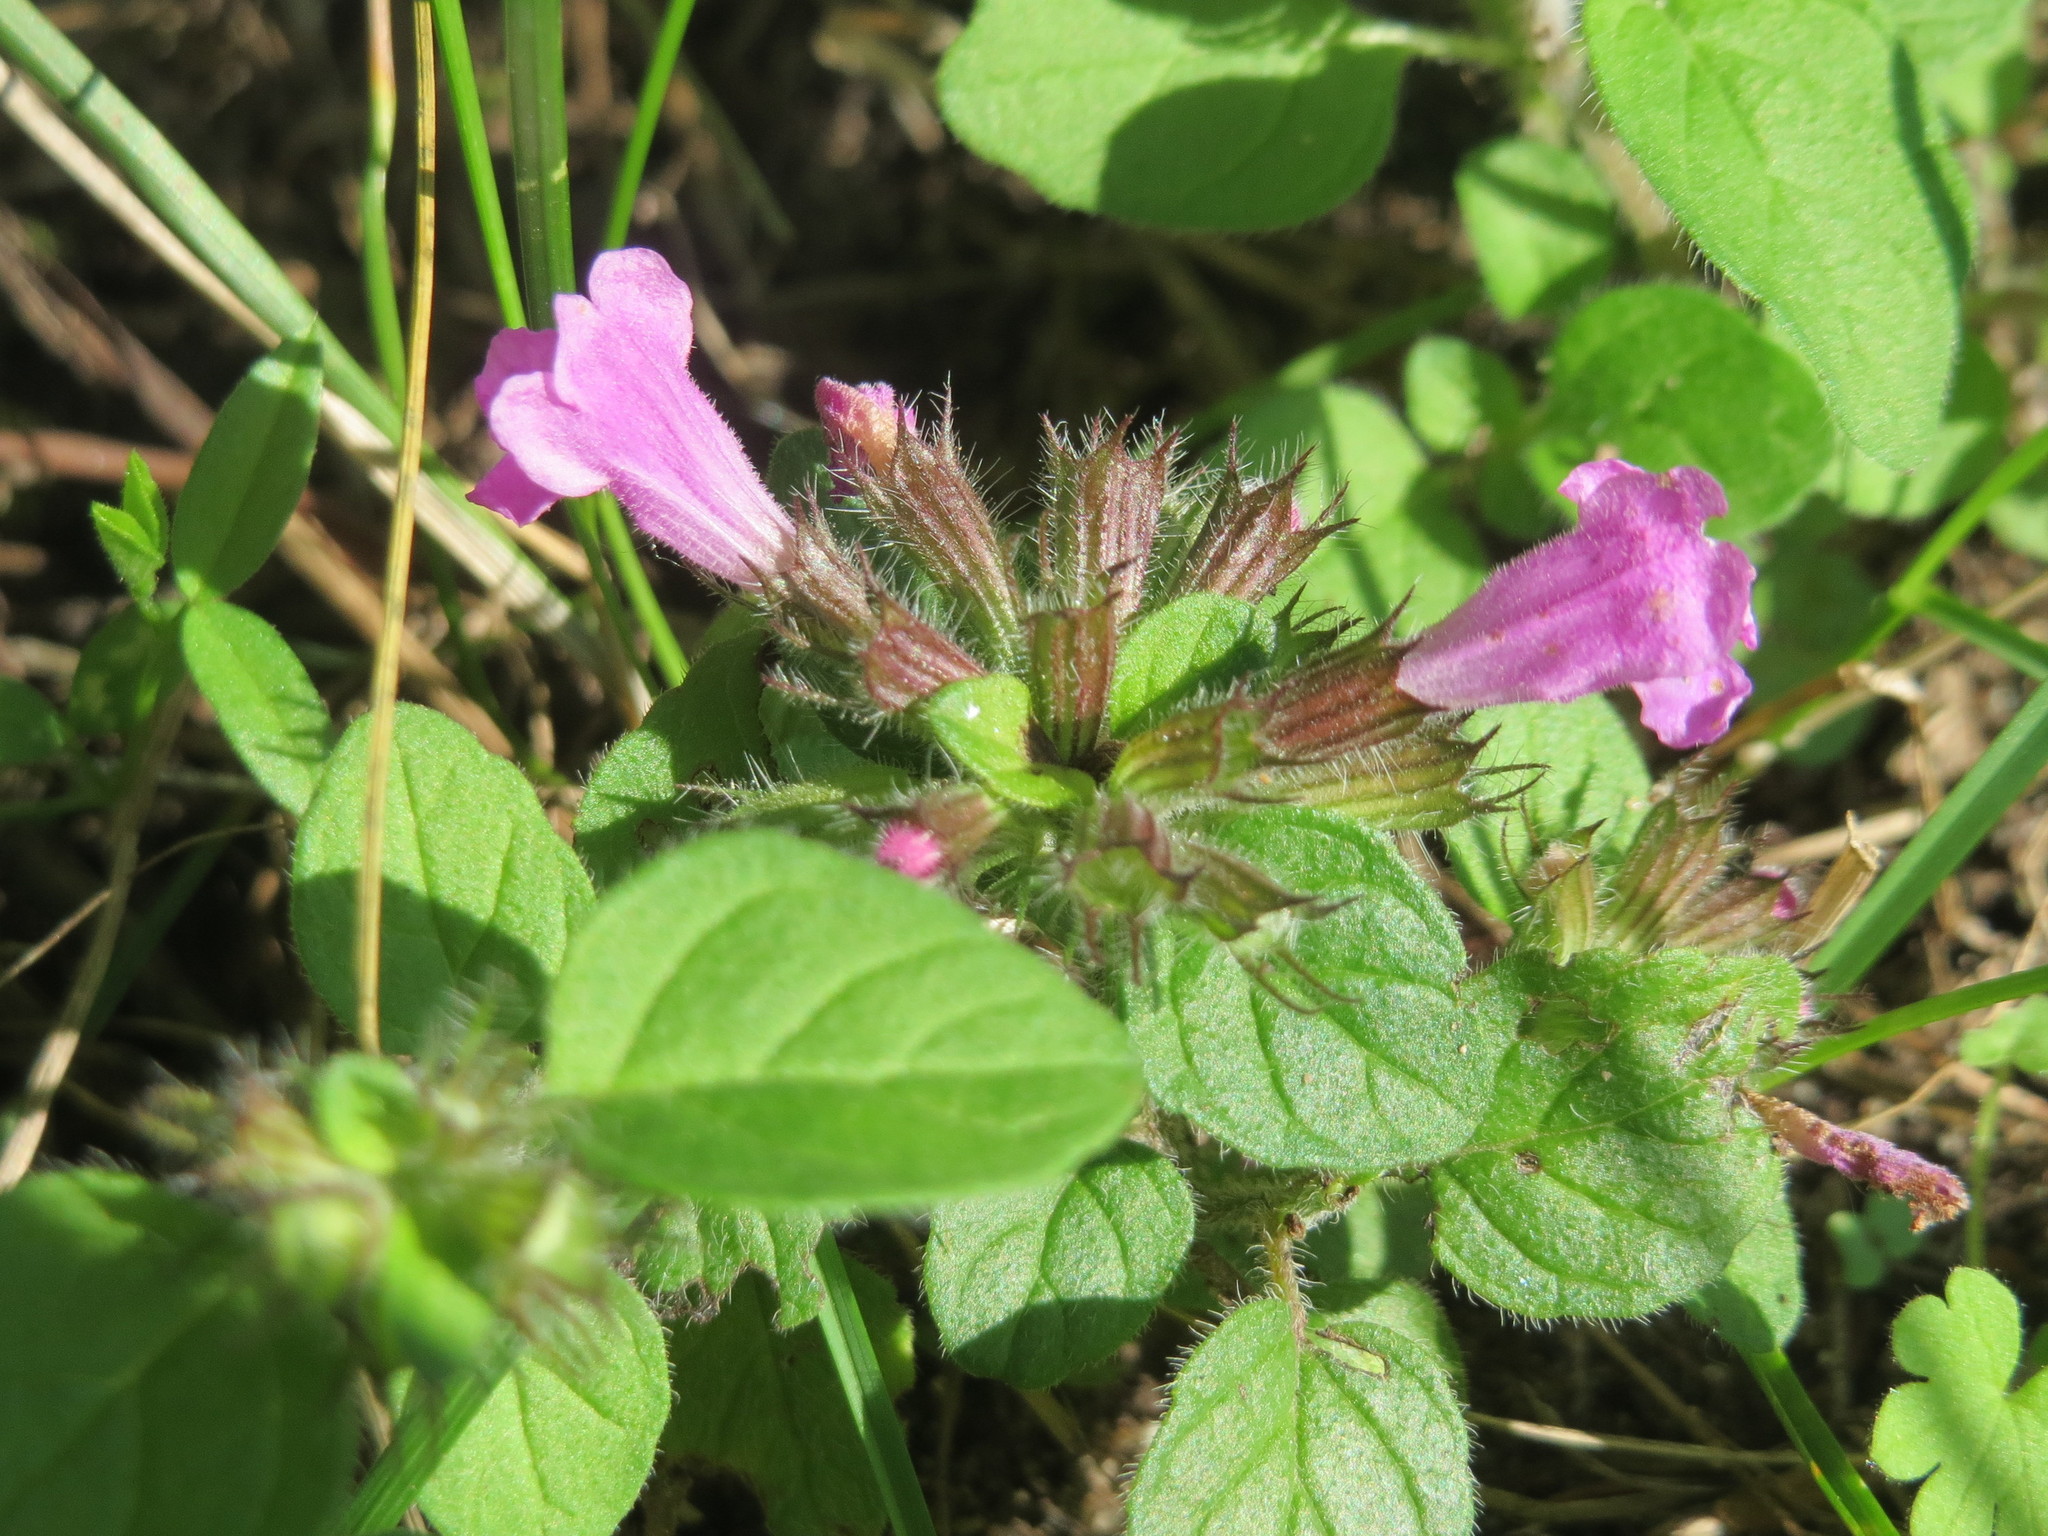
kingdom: Plantae
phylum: Tracheophyta
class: Magnoliopsida
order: Lamiales
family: Lamiaceae
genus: Clinopodium
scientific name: Clinopodium vulgare
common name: Wild basil
